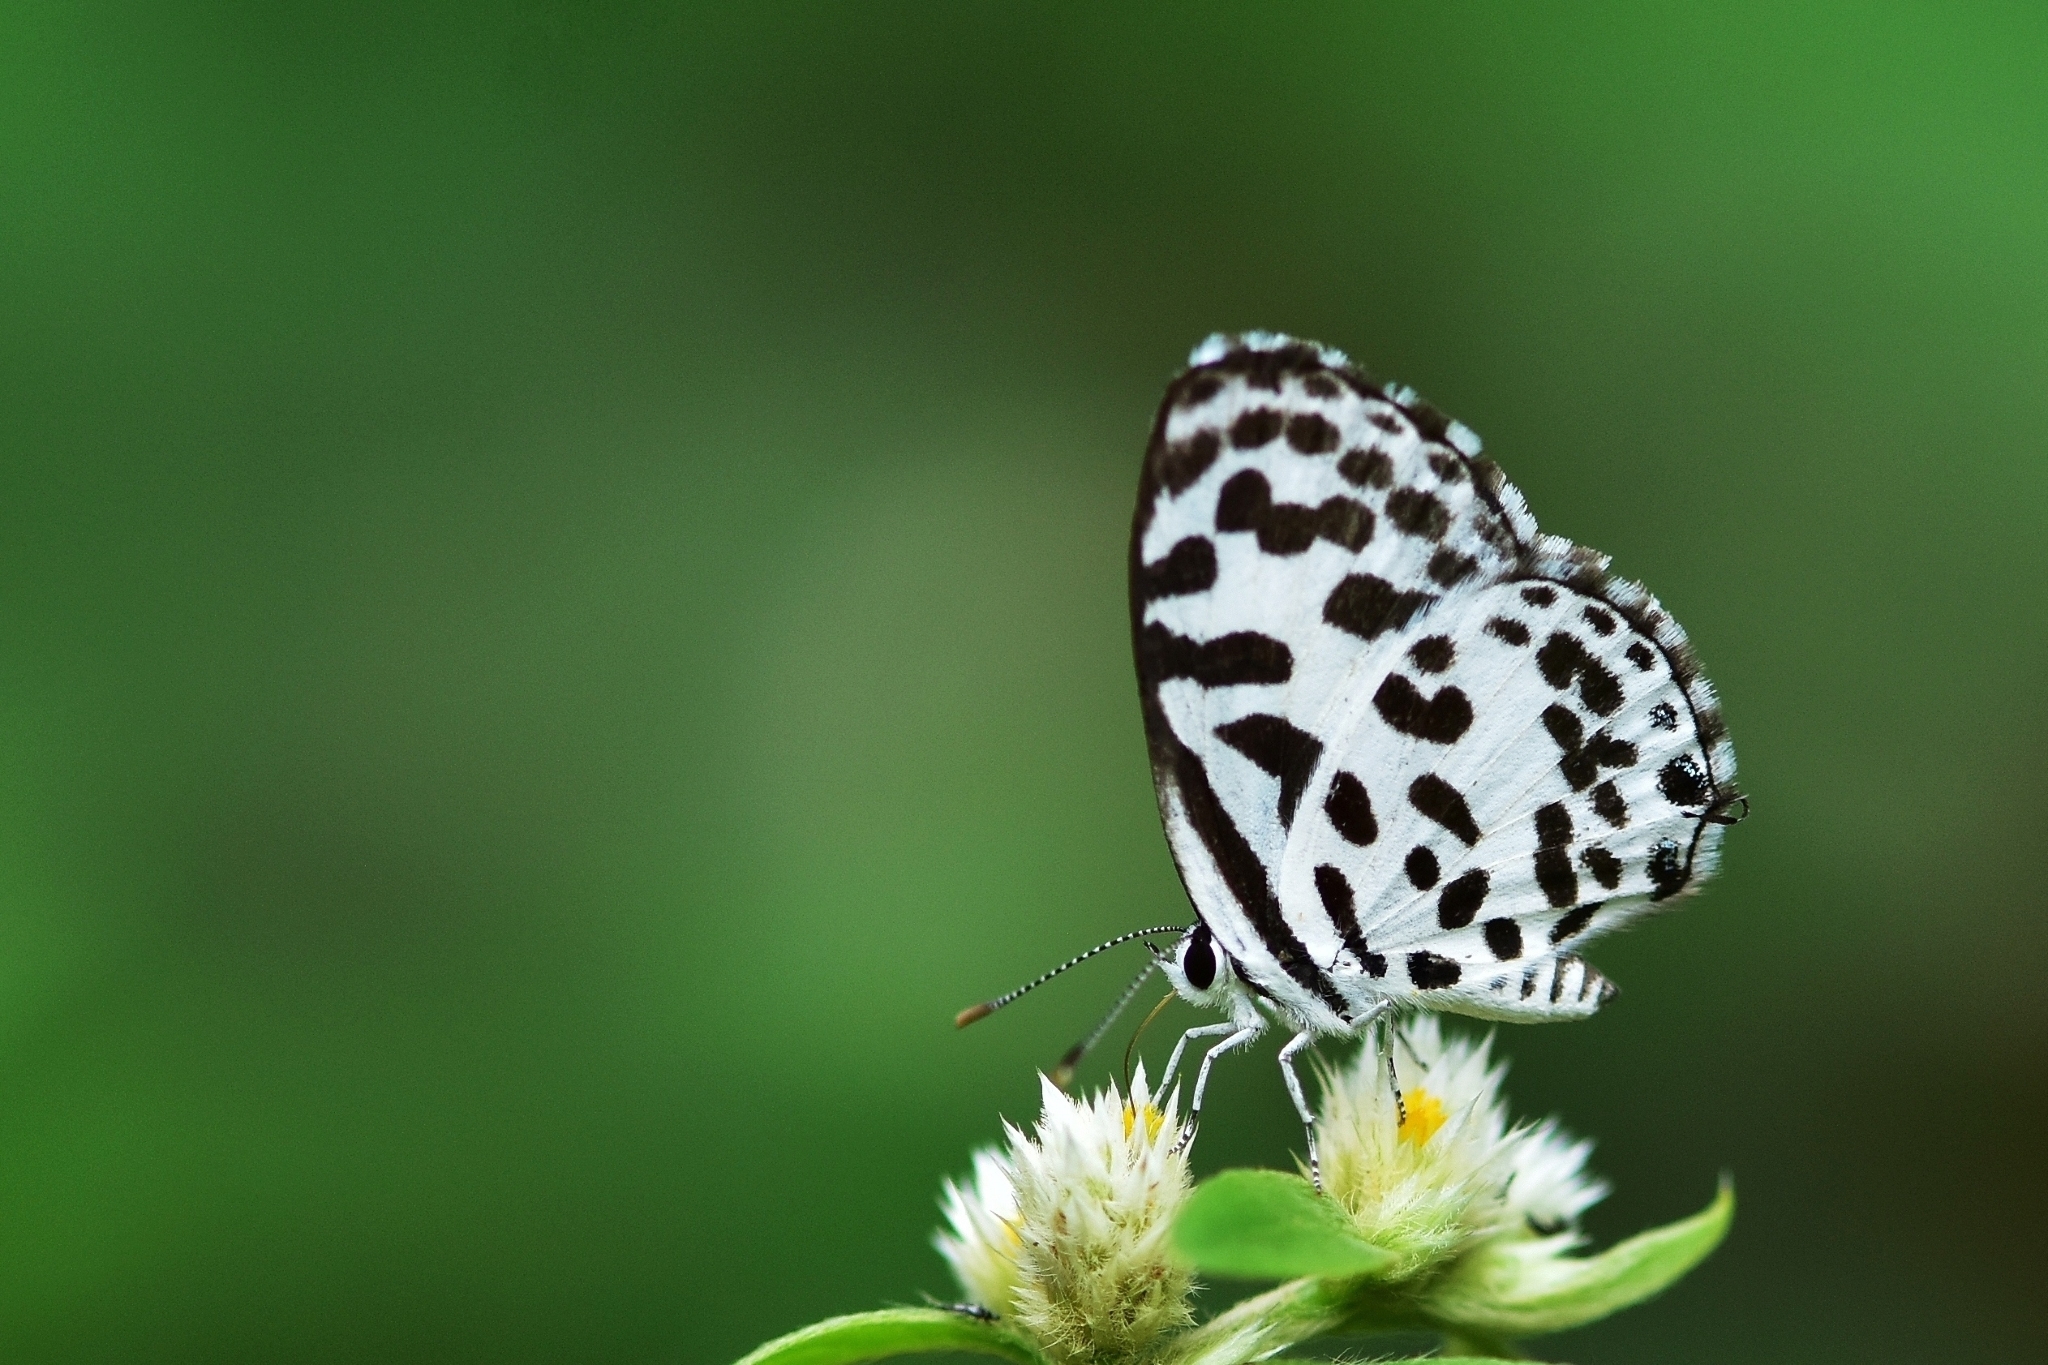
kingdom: Animalia
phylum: Arthropoda
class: Insecta
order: Lepidoptera
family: Lycaenidae
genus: Castalius
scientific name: Castalius rosimon
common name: Common pierrot
